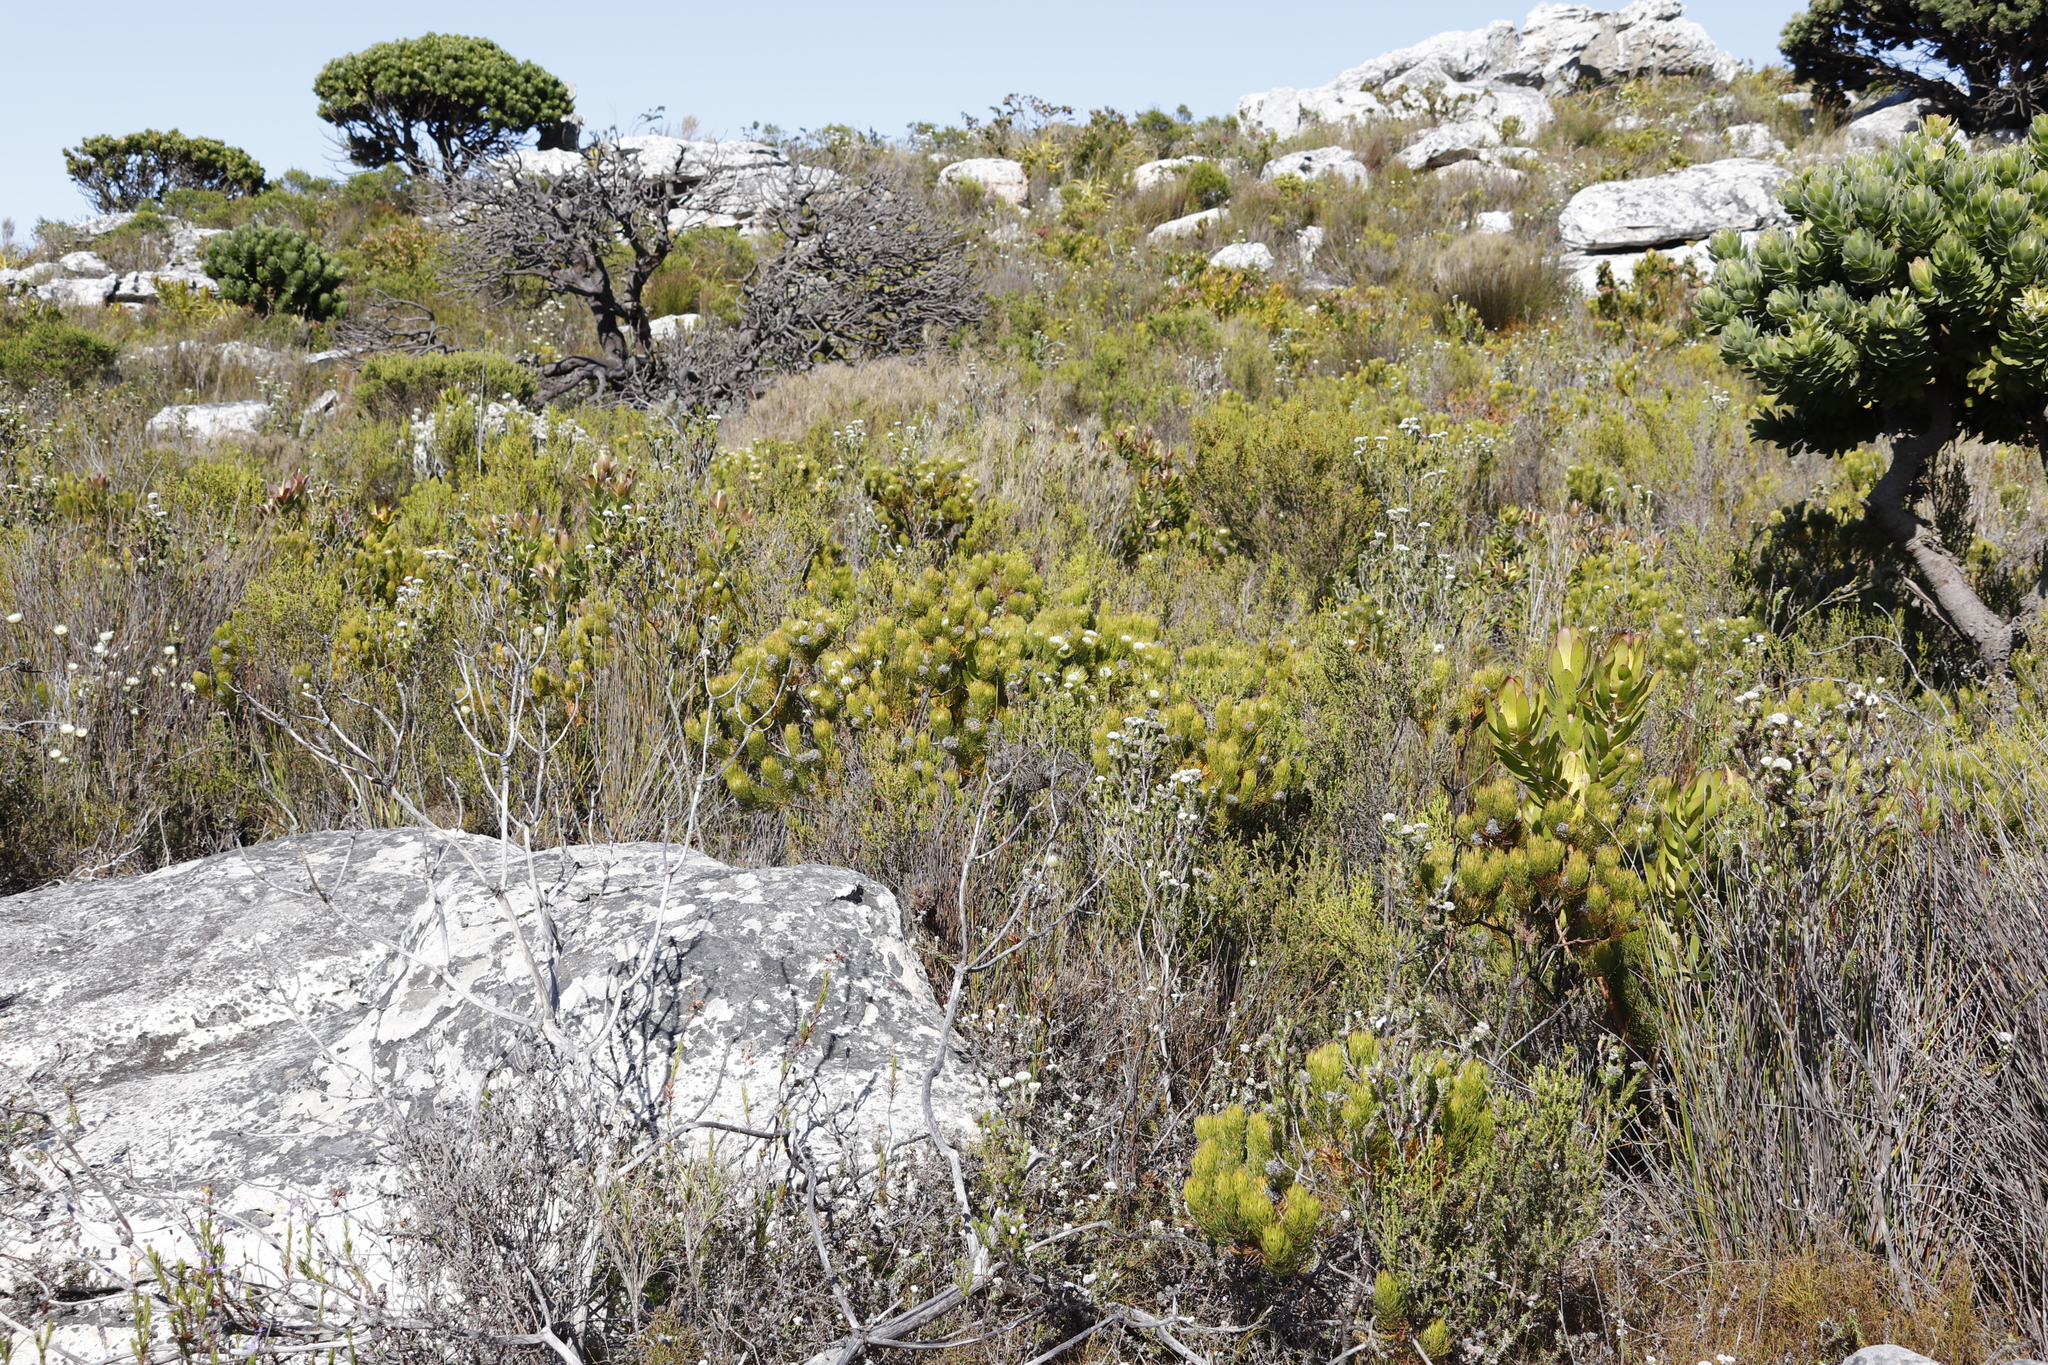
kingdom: Plantae
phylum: Tracheophyta
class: Magnoliopsida
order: Proteales
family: Proteaceae
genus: Serruria
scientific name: Serruria villosa
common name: Golden spiderhead
